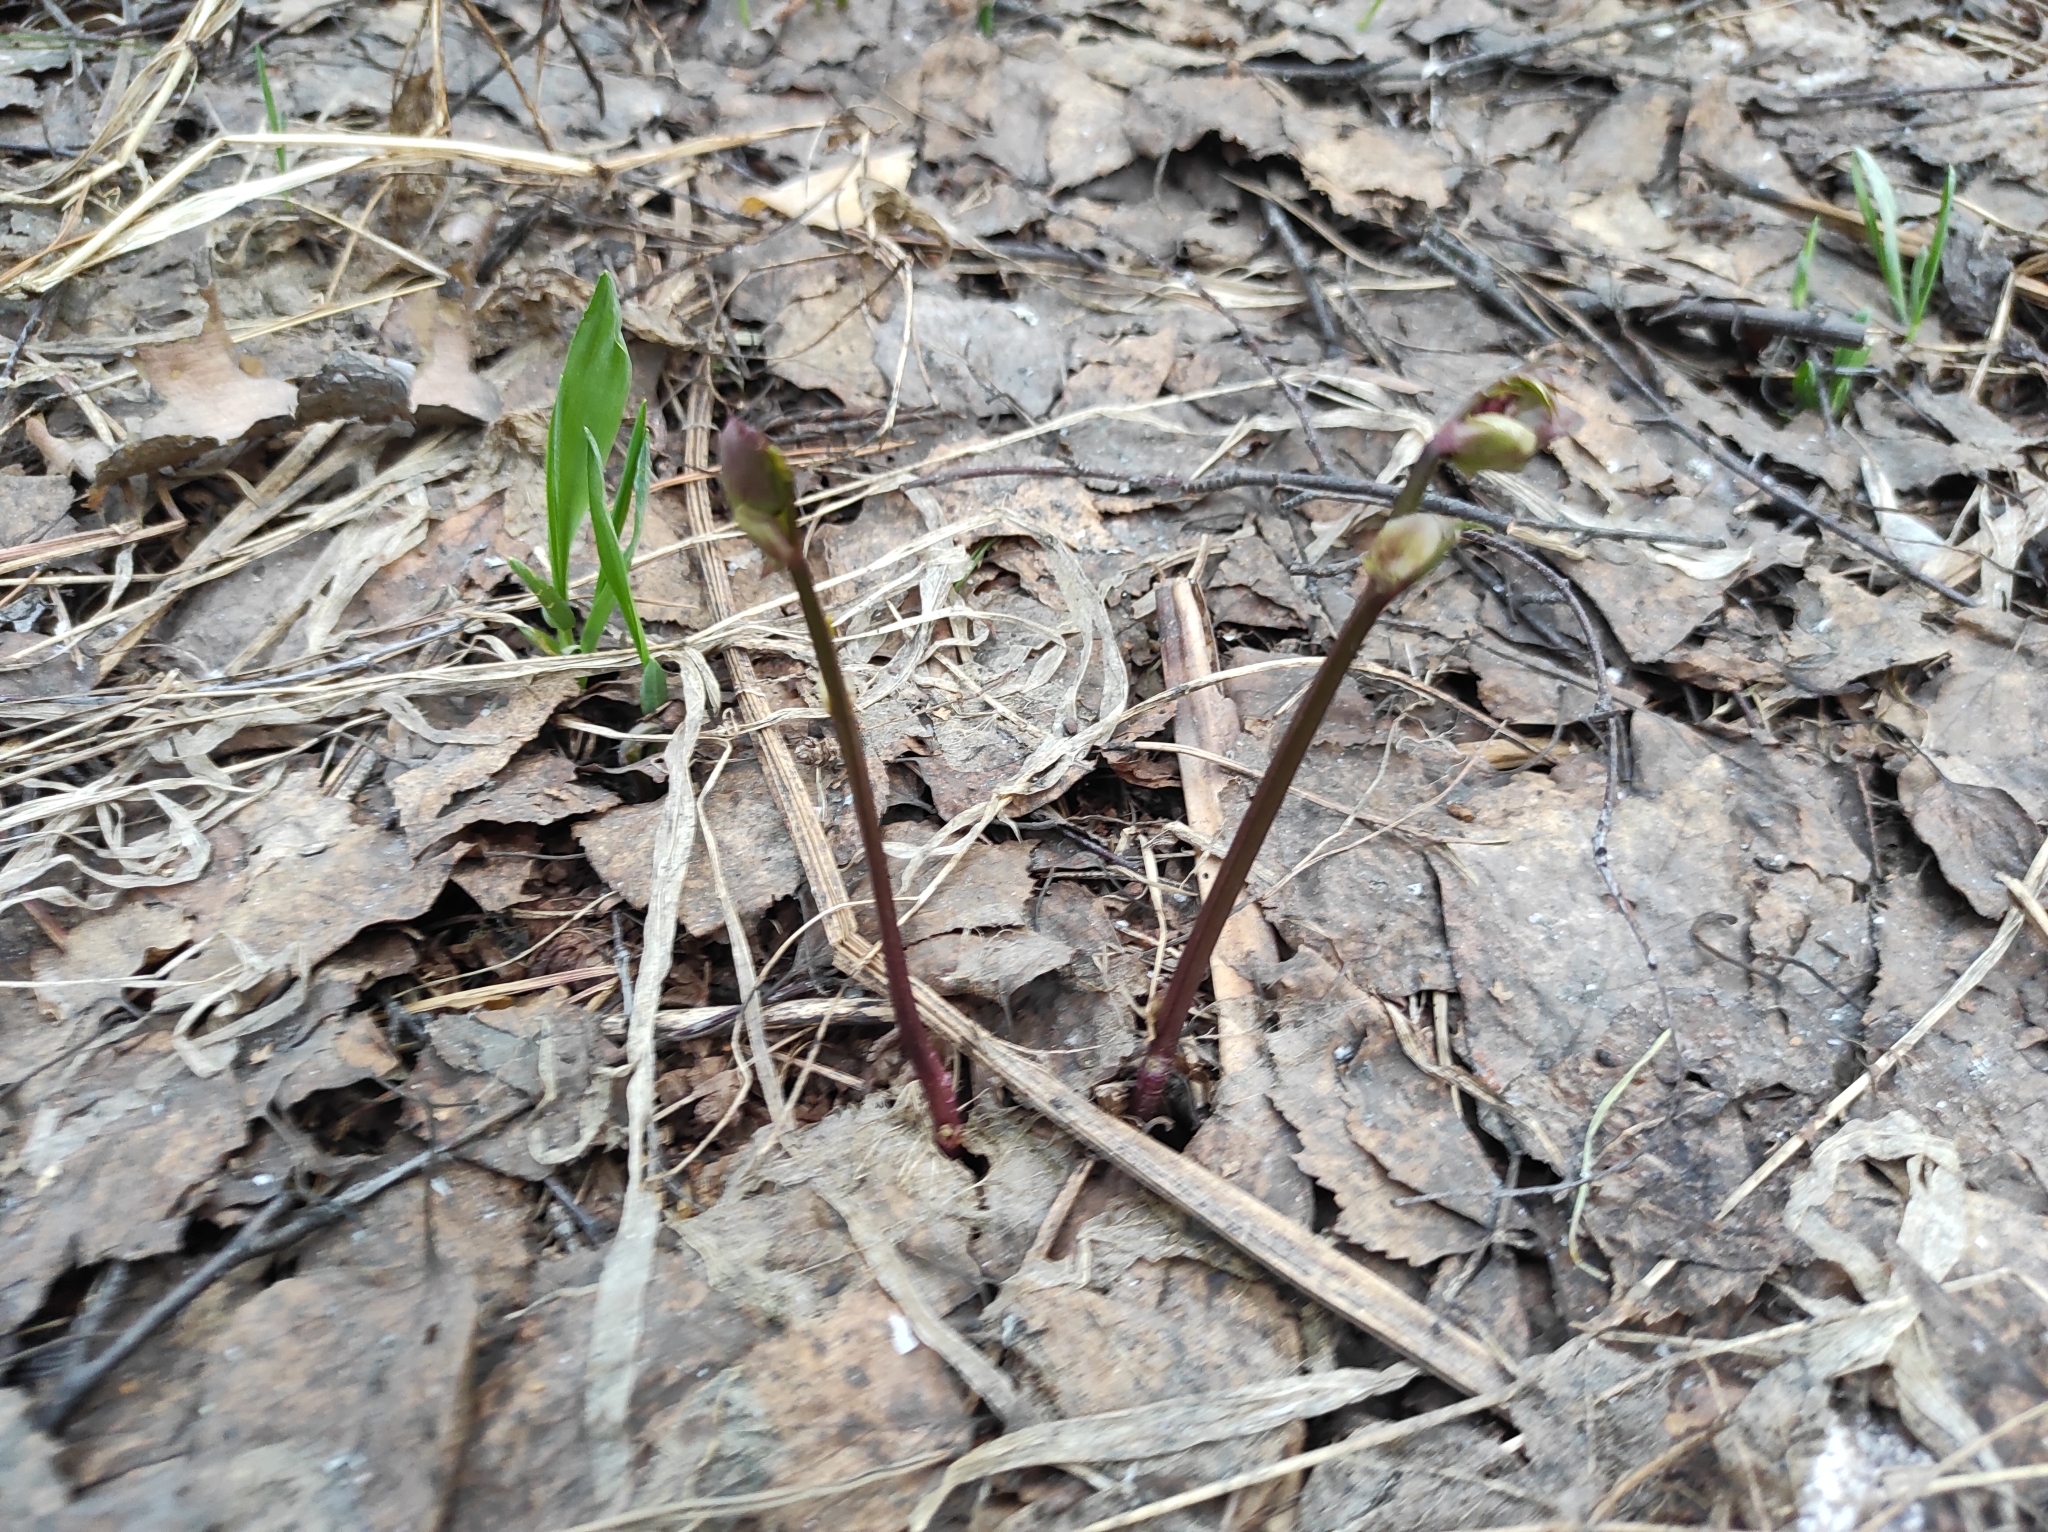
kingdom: Plantae
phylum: Tracheophyta
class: Magnoliopsida
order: Fabales
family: Fabaceae
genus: Lathyrus
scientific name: Lathyrus vernus
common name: Spring pea
